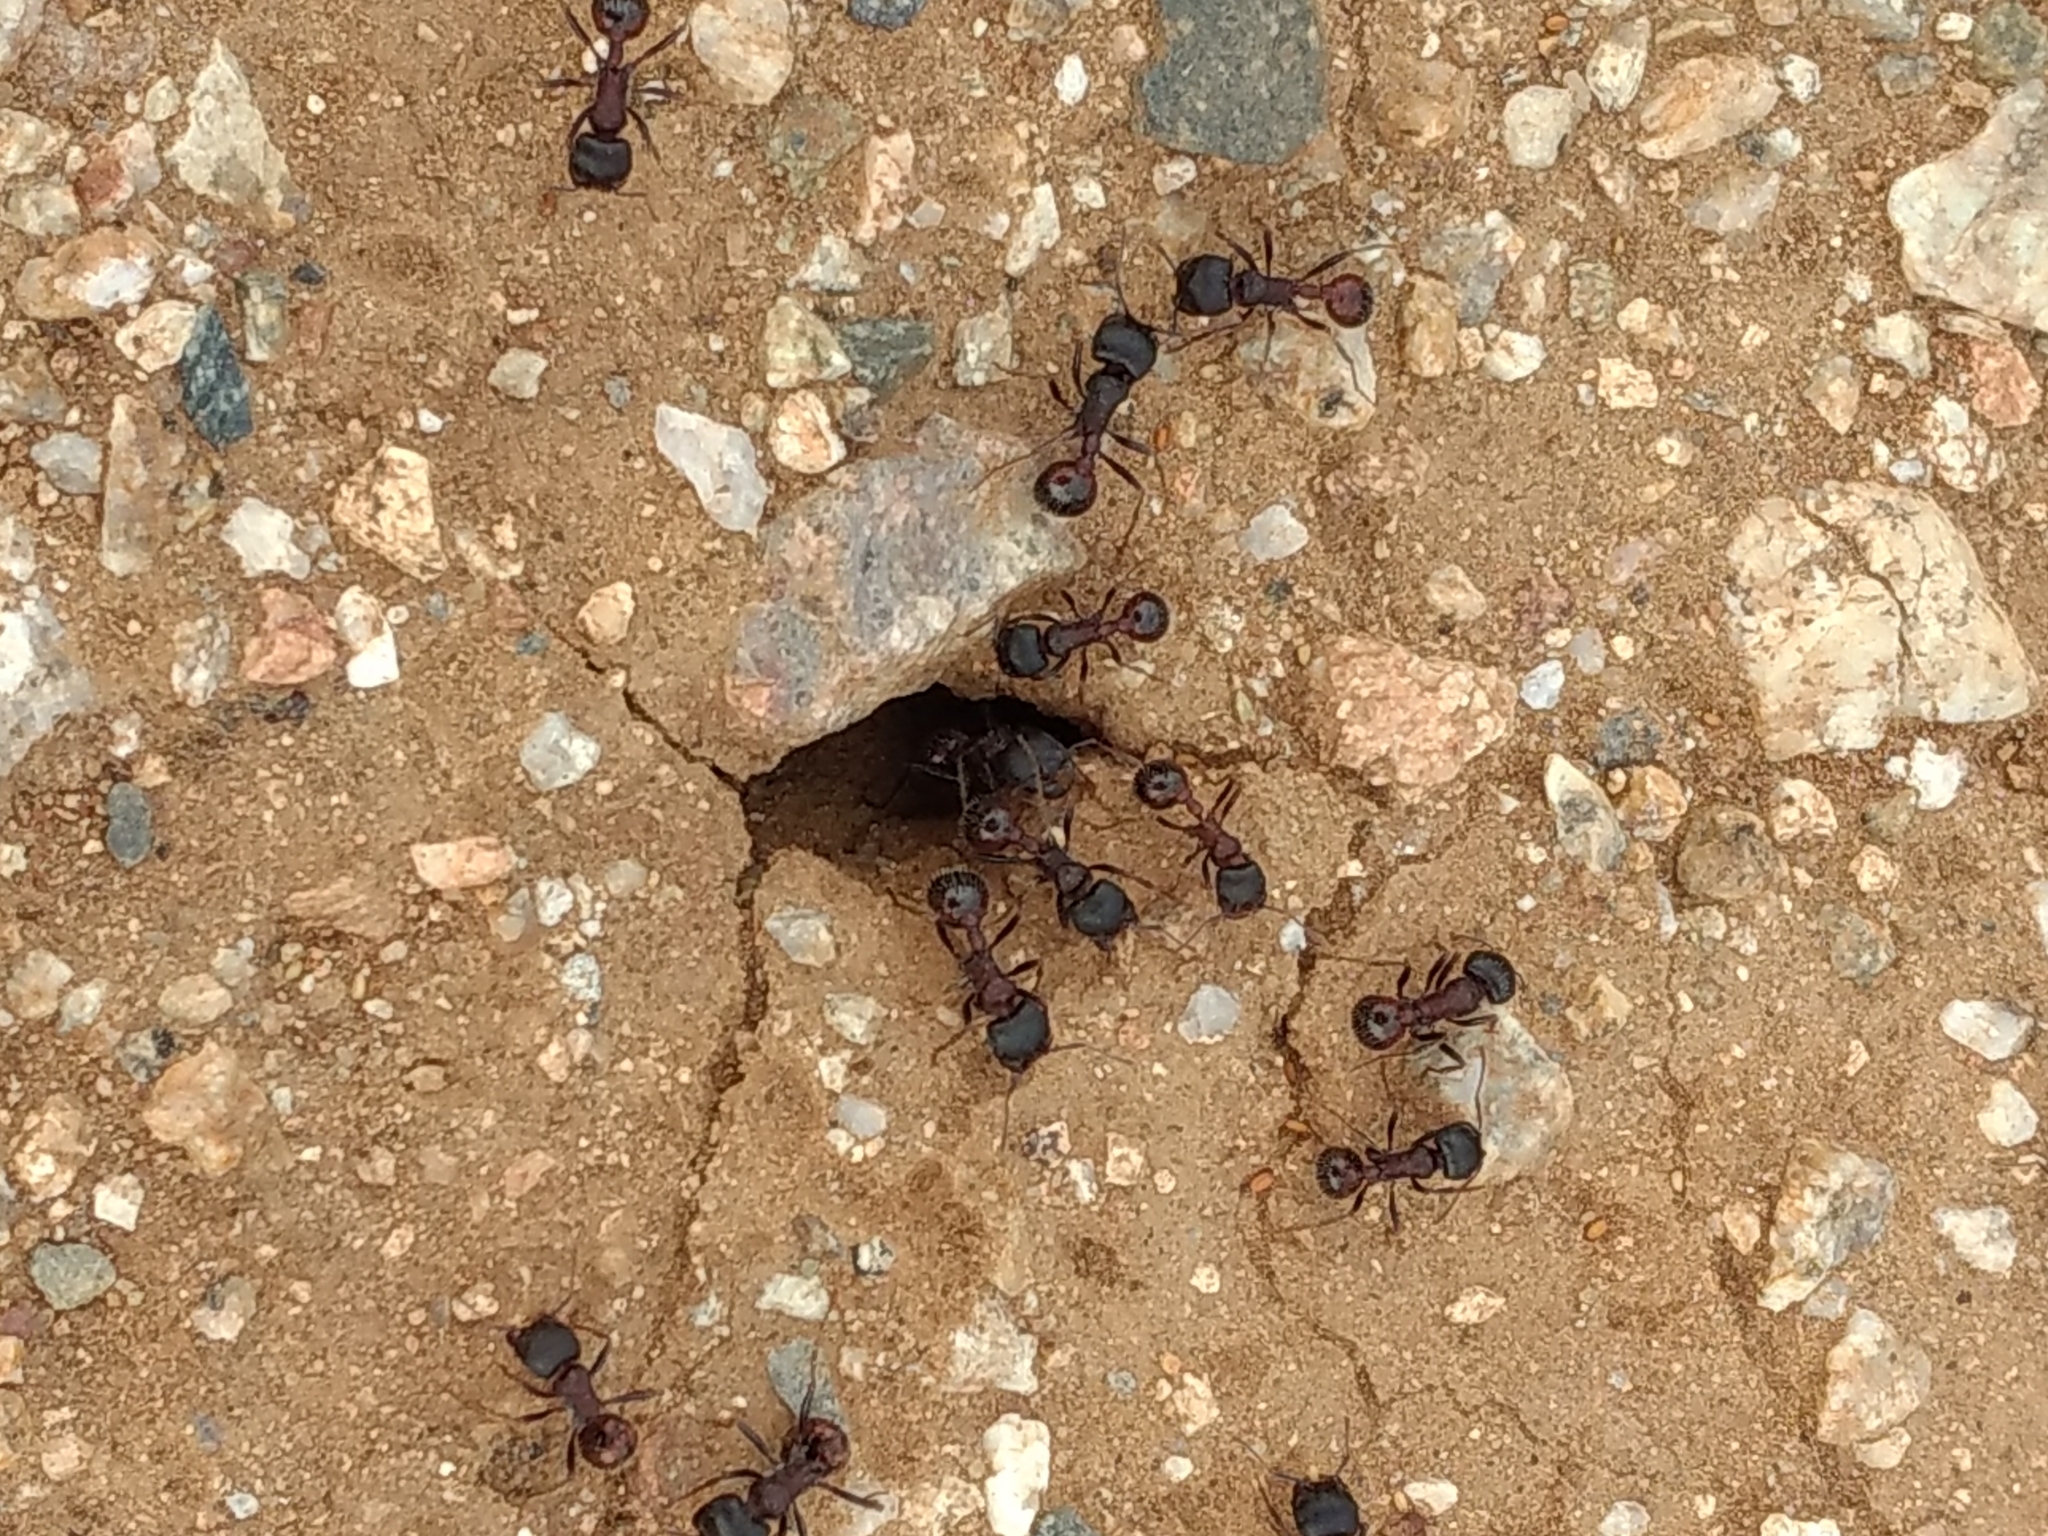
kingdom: Animalia
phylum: Arthropoda
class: Insecta
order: Hymenoptera
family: Formicidae
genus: Pogonomyrmex
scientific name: Pogonomyrmex rugosus
